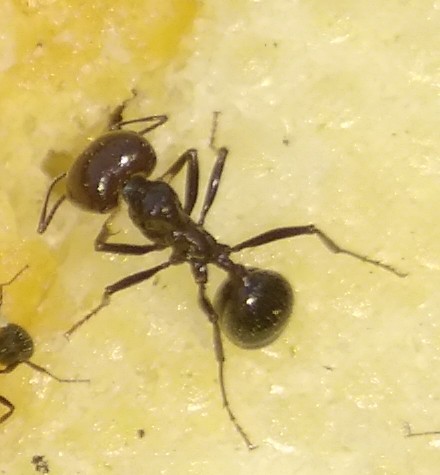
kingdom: Animalia
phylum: Arthropoda
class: Insecta
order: Hymenoptera
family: Formicidae
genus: Messor
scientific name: Messor barbarus
